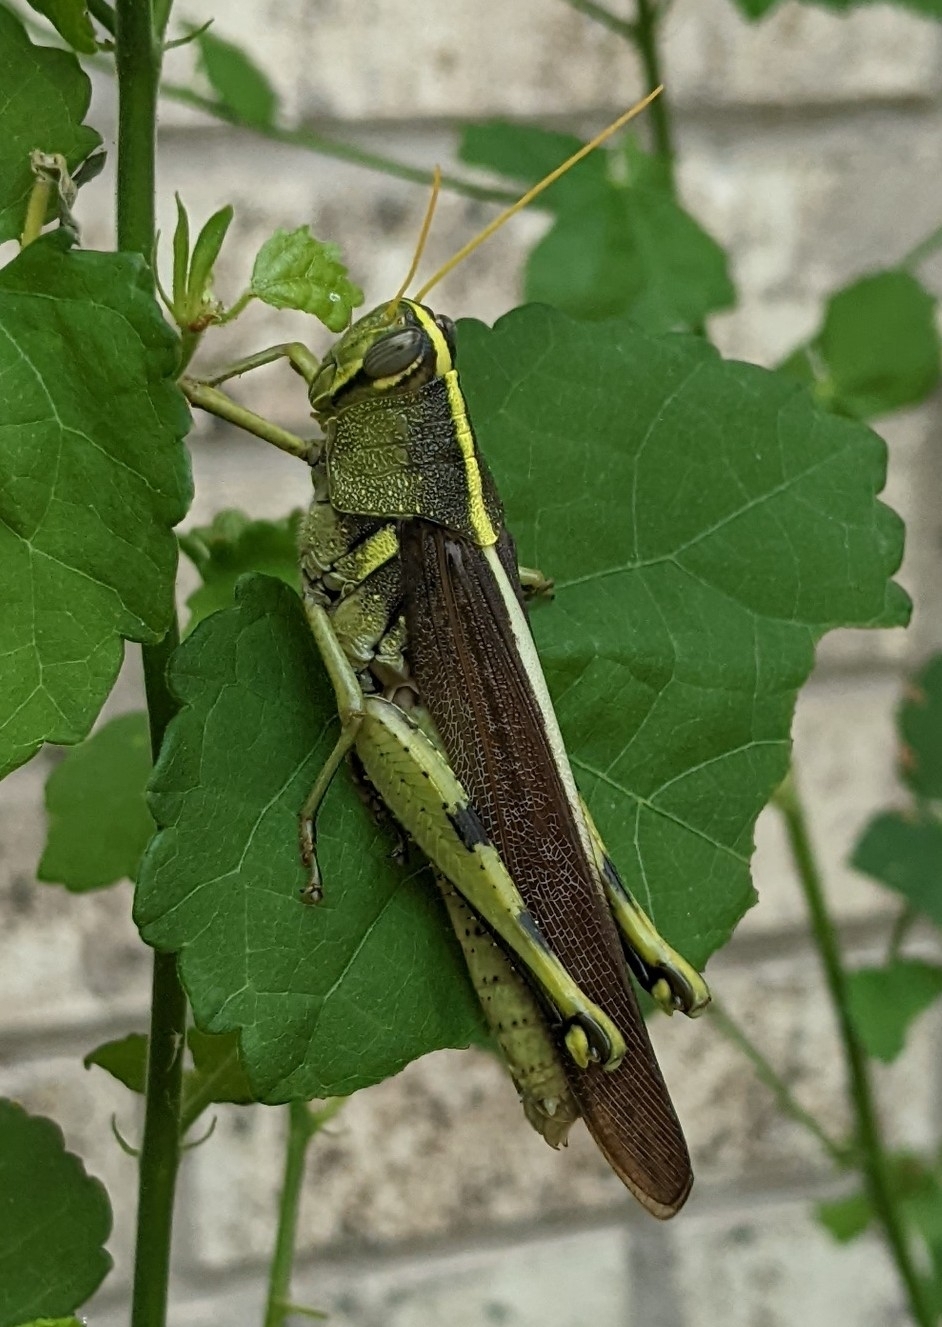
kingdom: Animalia
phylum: Arthropoda
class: Insecta
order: Orthoptera
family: Acrididae
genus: Schistocerca
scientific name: Schistocerca obscura
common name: Obscure bird grasshopper
